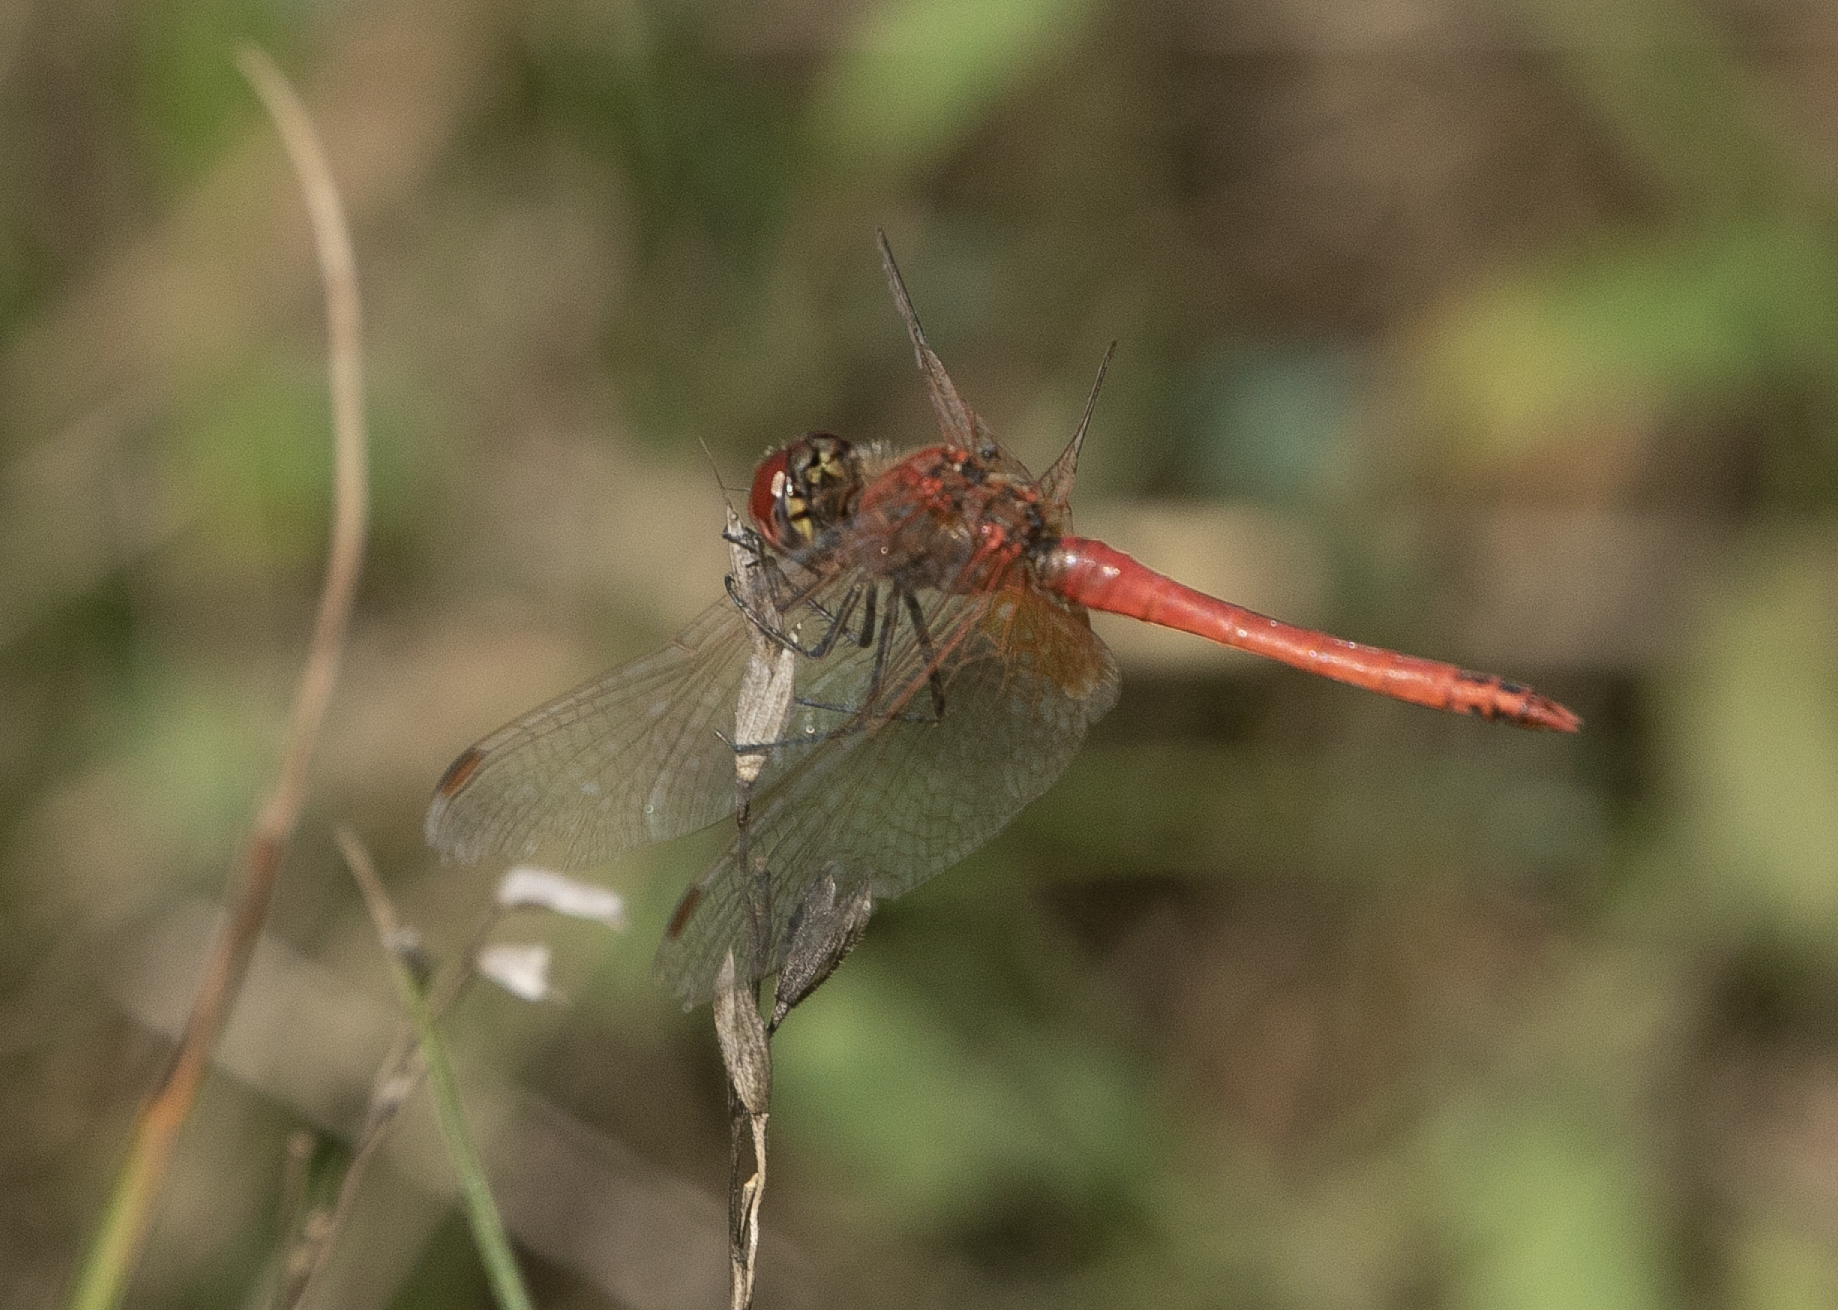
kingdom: Animalia
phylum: Arthropoda
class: Insecta
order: Odonata
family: Libellulidae
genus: Sympetrum
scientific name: Sympetrum fonscolombii
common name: Red-veined darter
